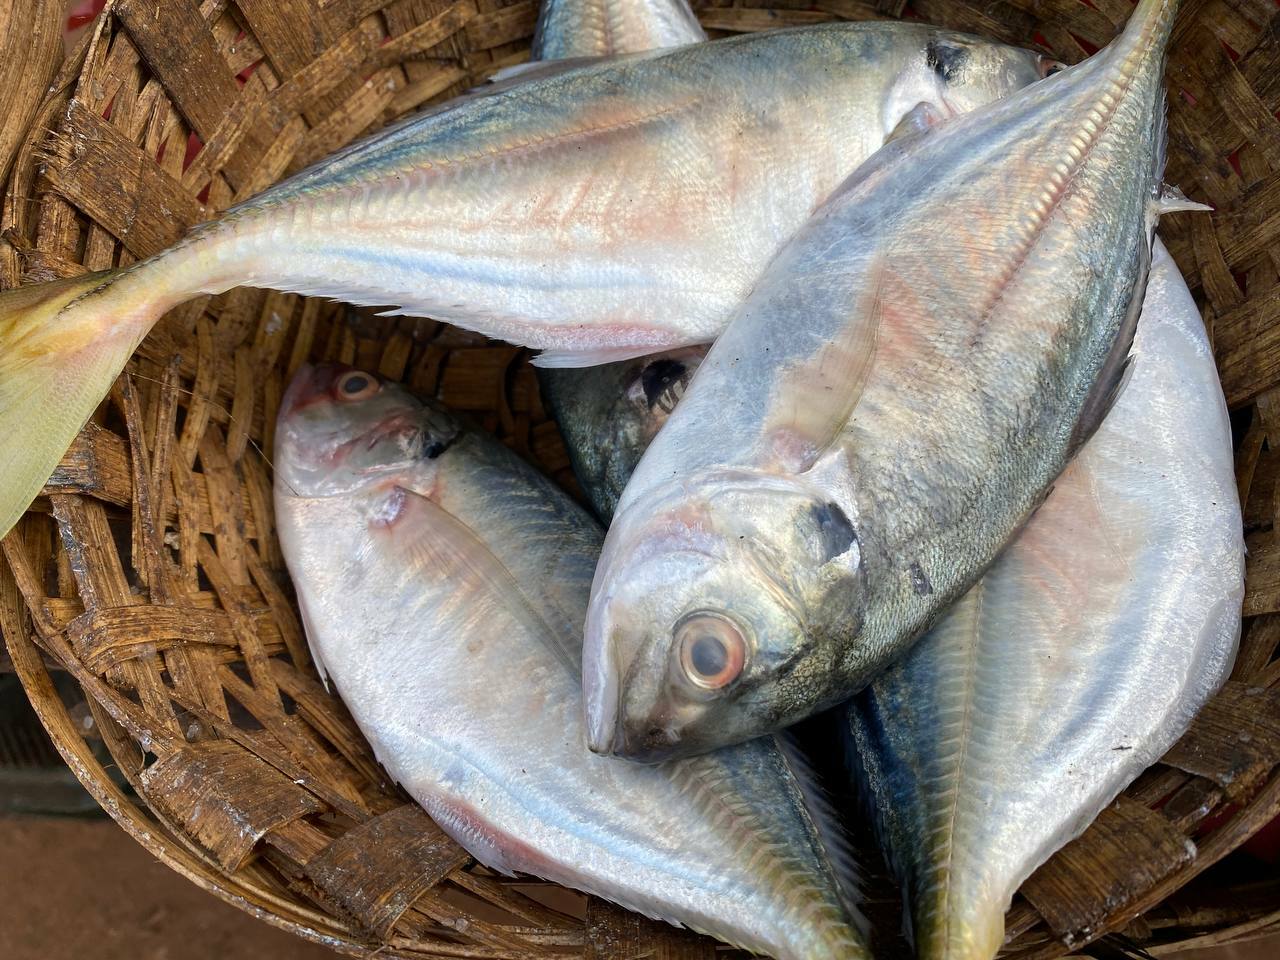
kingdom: Animalia
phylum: Chordata
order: Perciformes
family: Carangidae
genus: Alepes
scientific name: Alepes djedaba
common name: Shrimp scad
